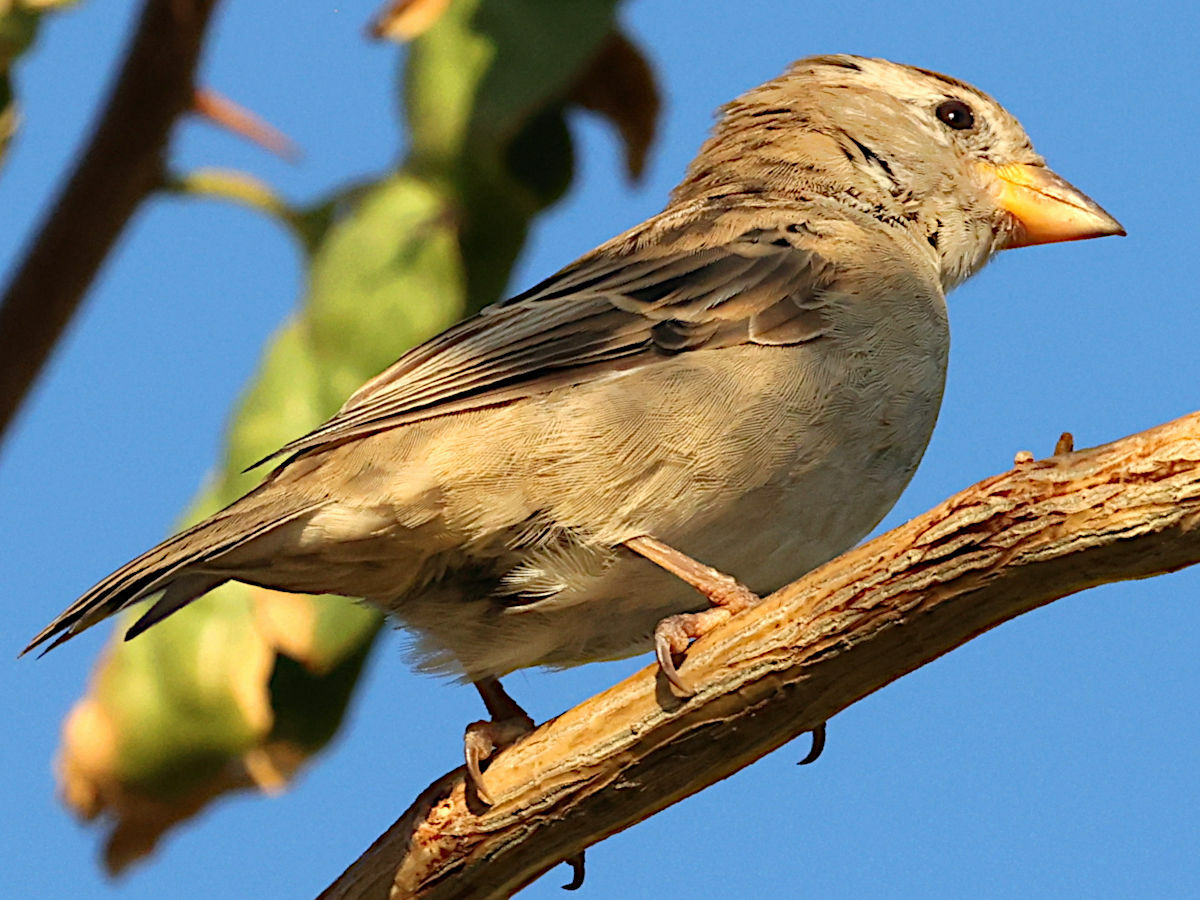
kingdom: Animalia
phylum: Chordata
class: Aves
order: Passeriformes
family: Passeridae
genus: Passer
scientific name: Passer domesticus
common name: House sparrow
